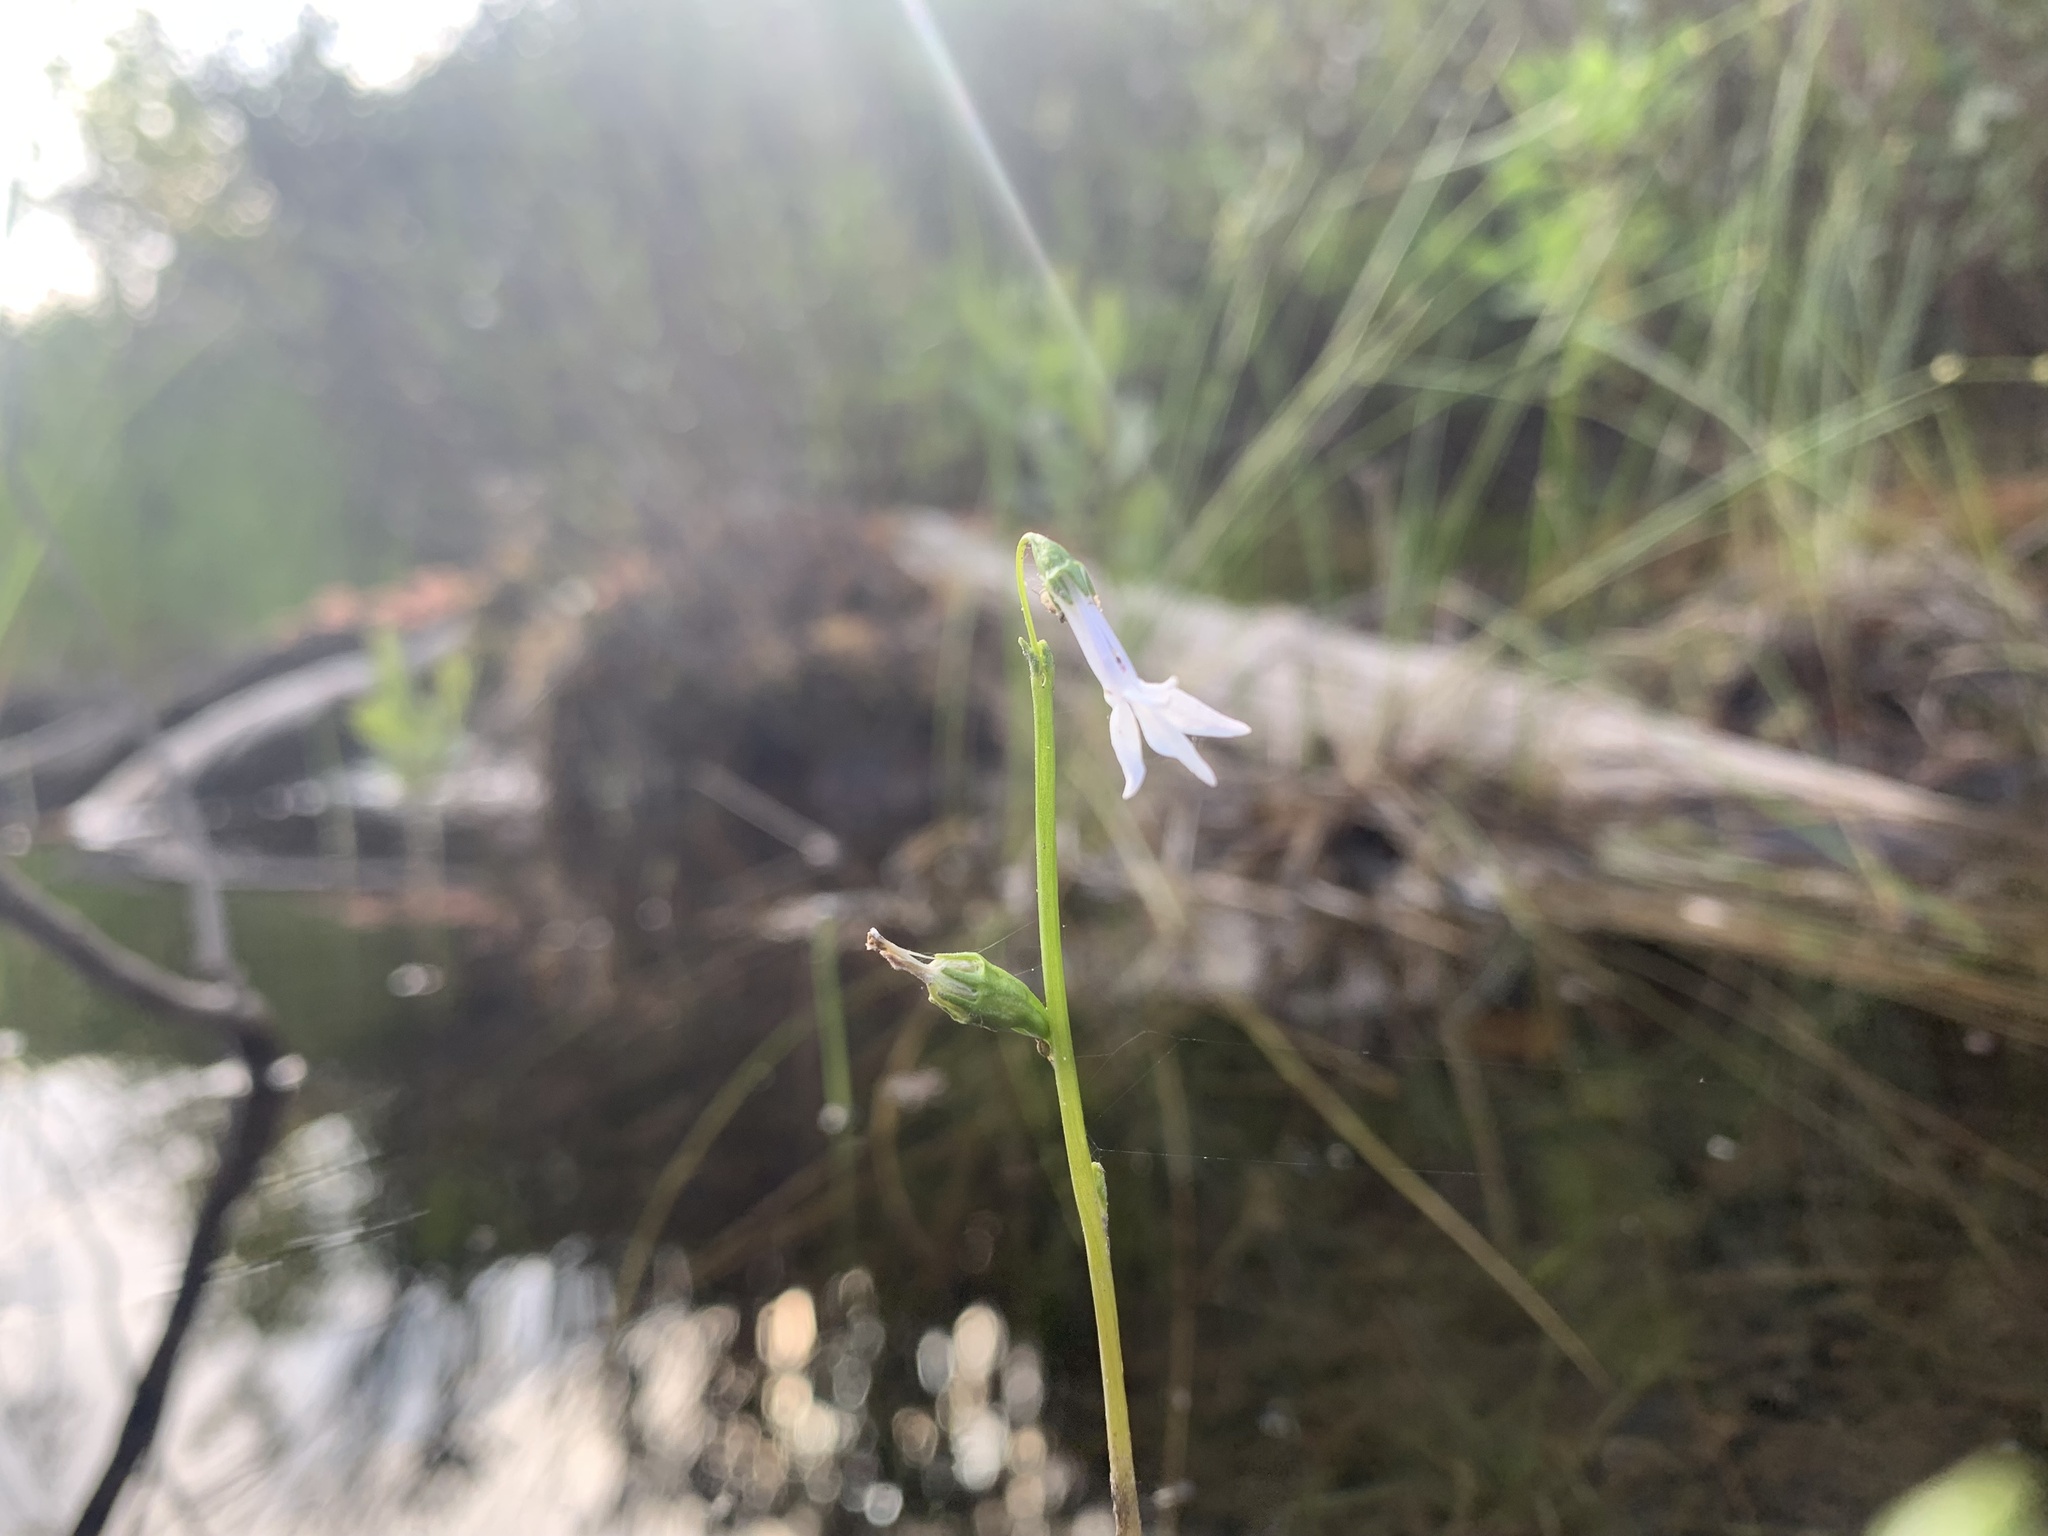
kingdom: Plantae
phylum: Tracheophyta
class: Magnoliopsida
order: Asterales
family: Campanulaceae
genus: Lobelia
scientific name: Lobelia dortmanna
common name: Water lobelia
